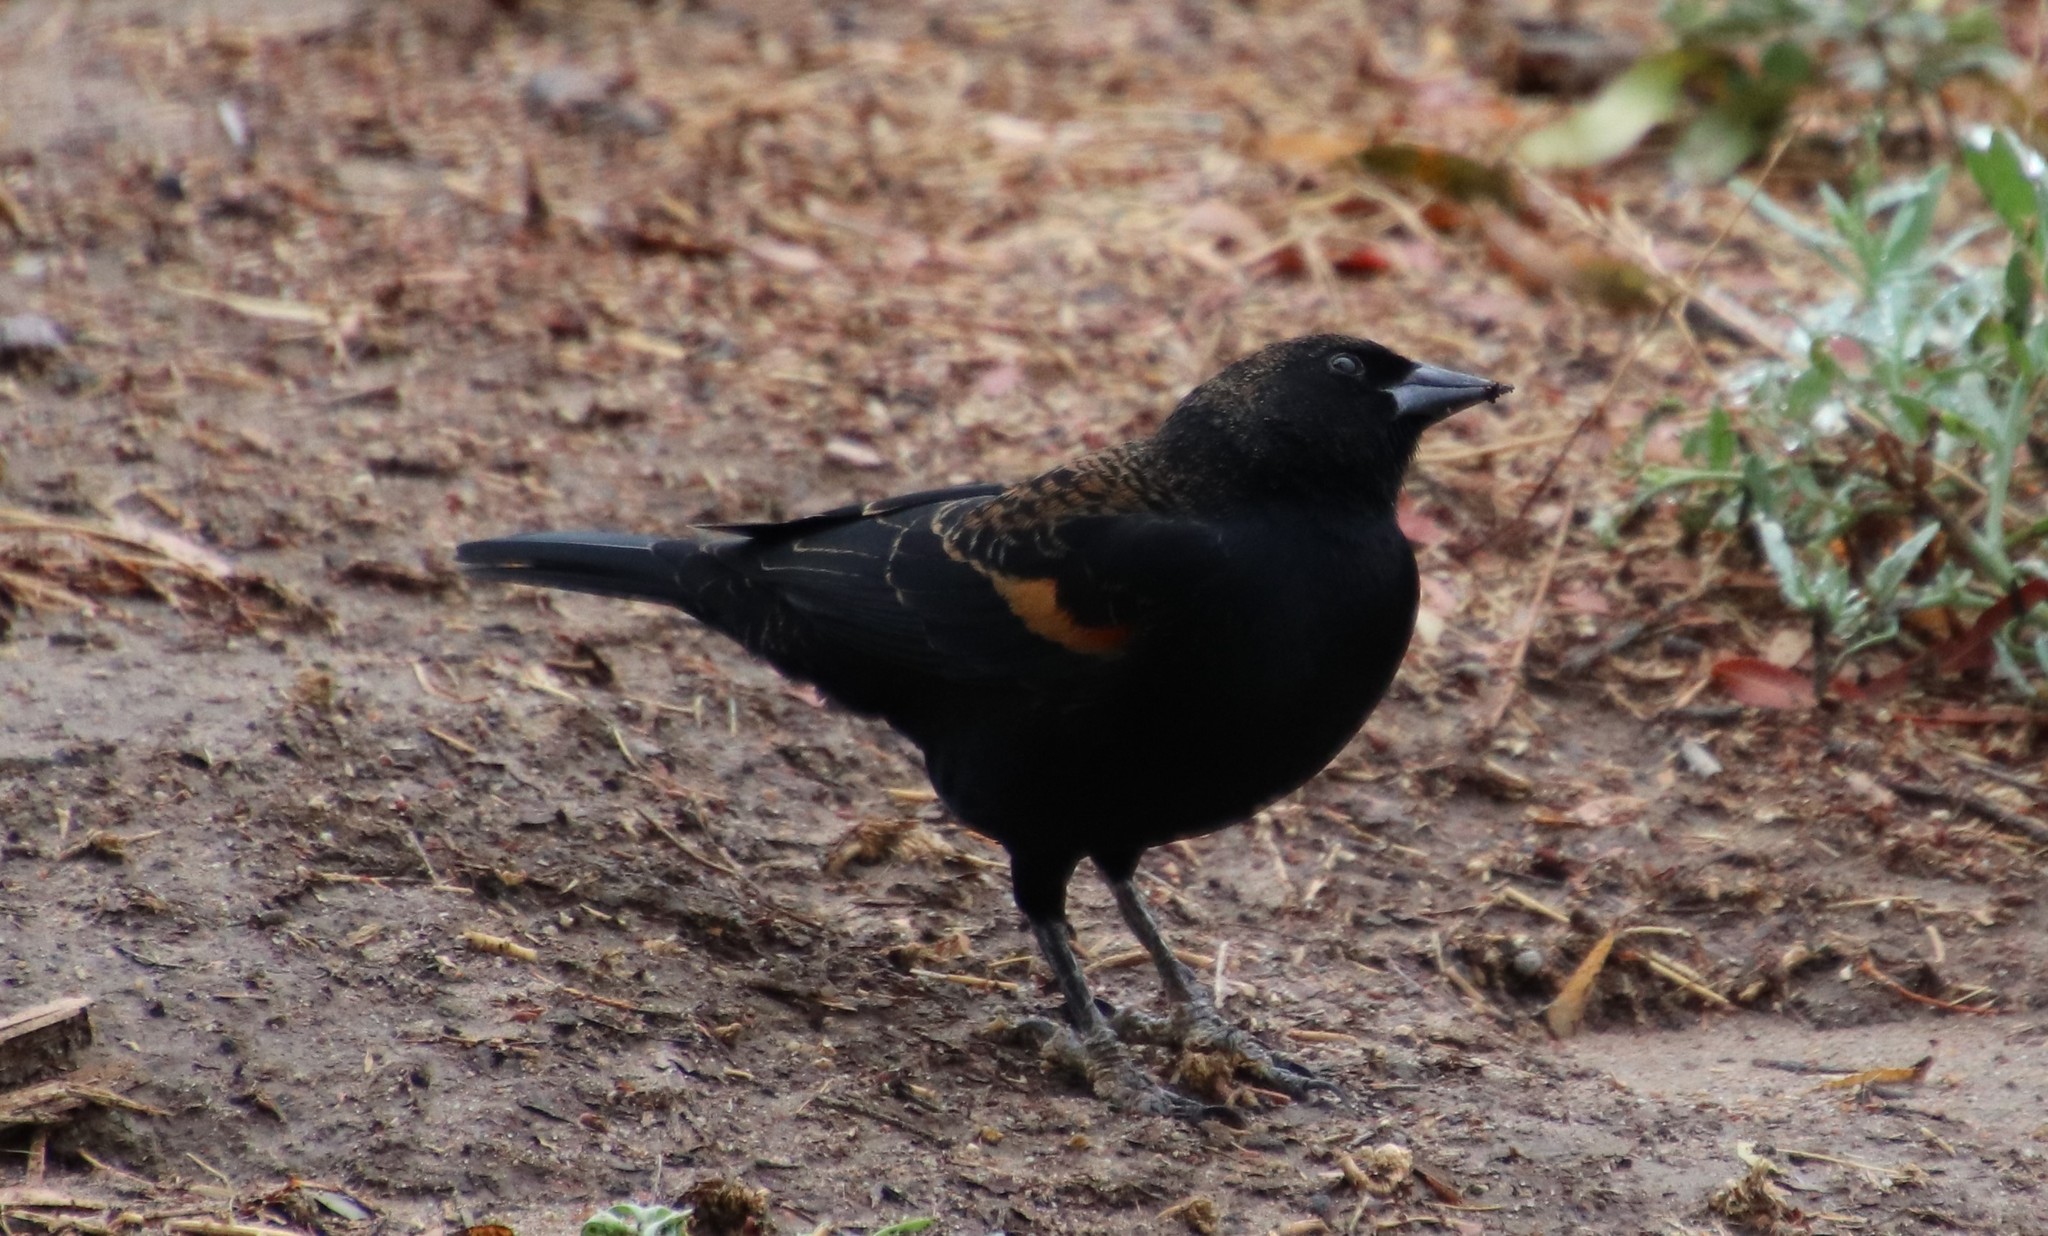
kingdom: Animalia
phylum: Chordata
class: Aves
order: Passeriformes
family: Icteridae
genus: Agelaius
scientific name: Agelaius phoeniceus
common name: Red-winged blackbird
